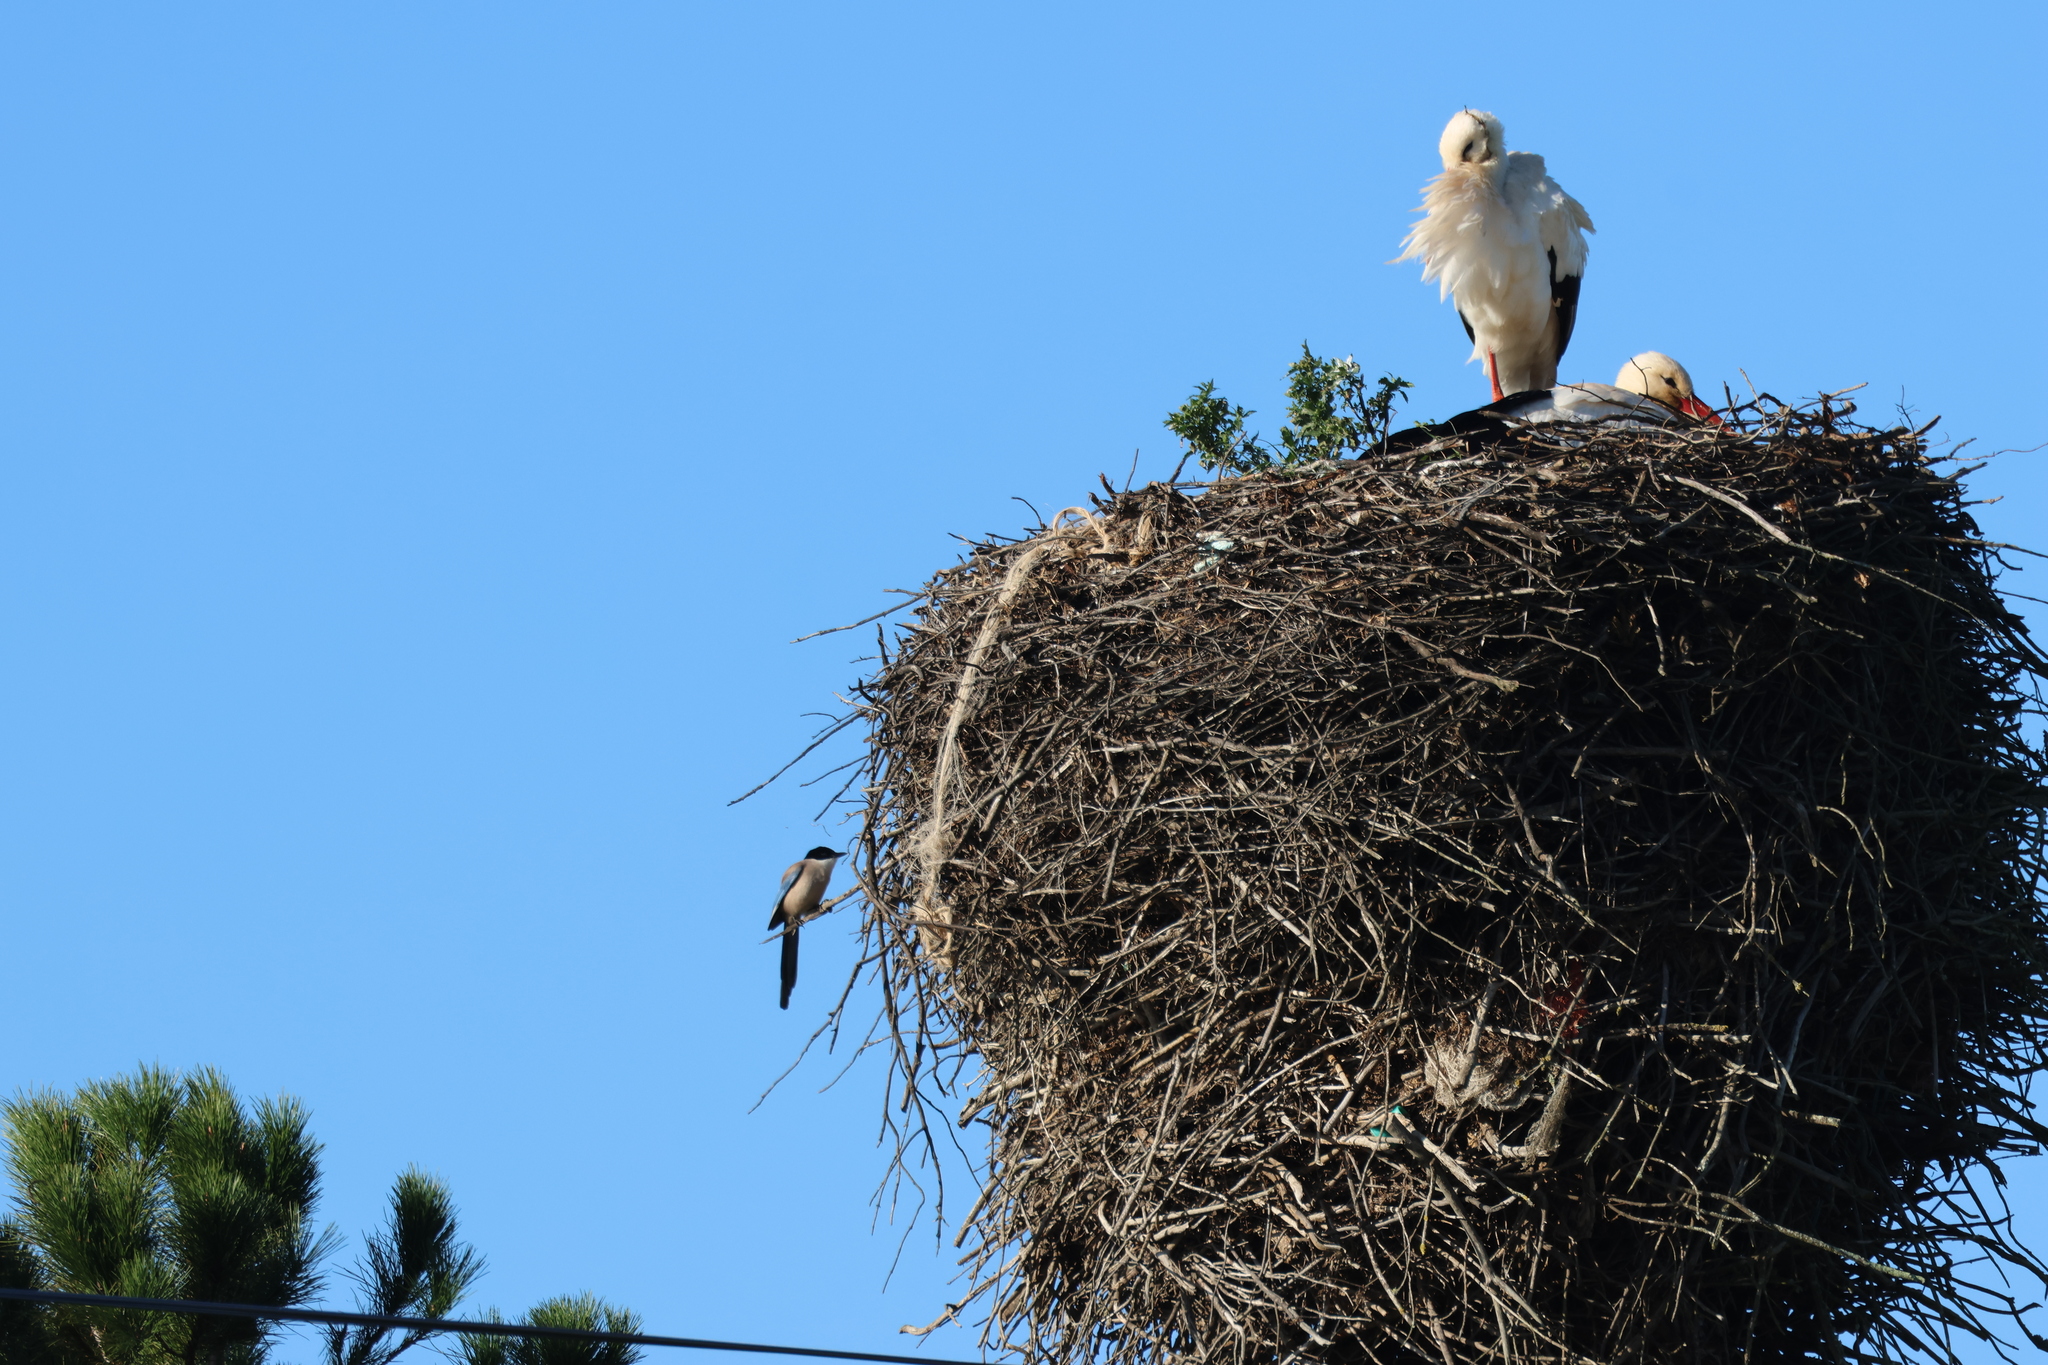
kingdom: Animalia
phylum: Chordata
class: Aves
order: Passeriformes
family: Corvidae
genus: Cyanopica
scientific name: Cyanopica cooki
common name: Iberian magpie
